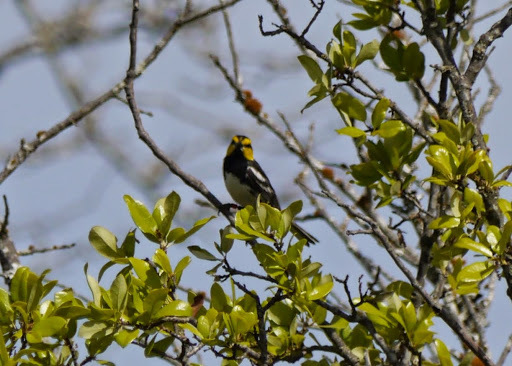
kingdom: Animalia
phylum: Chordata
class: Aves
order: Passeriformes
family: Parulidae
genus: Setophaga
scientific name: Setophaga chrysoparia
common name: Golden-cheeked warbler
